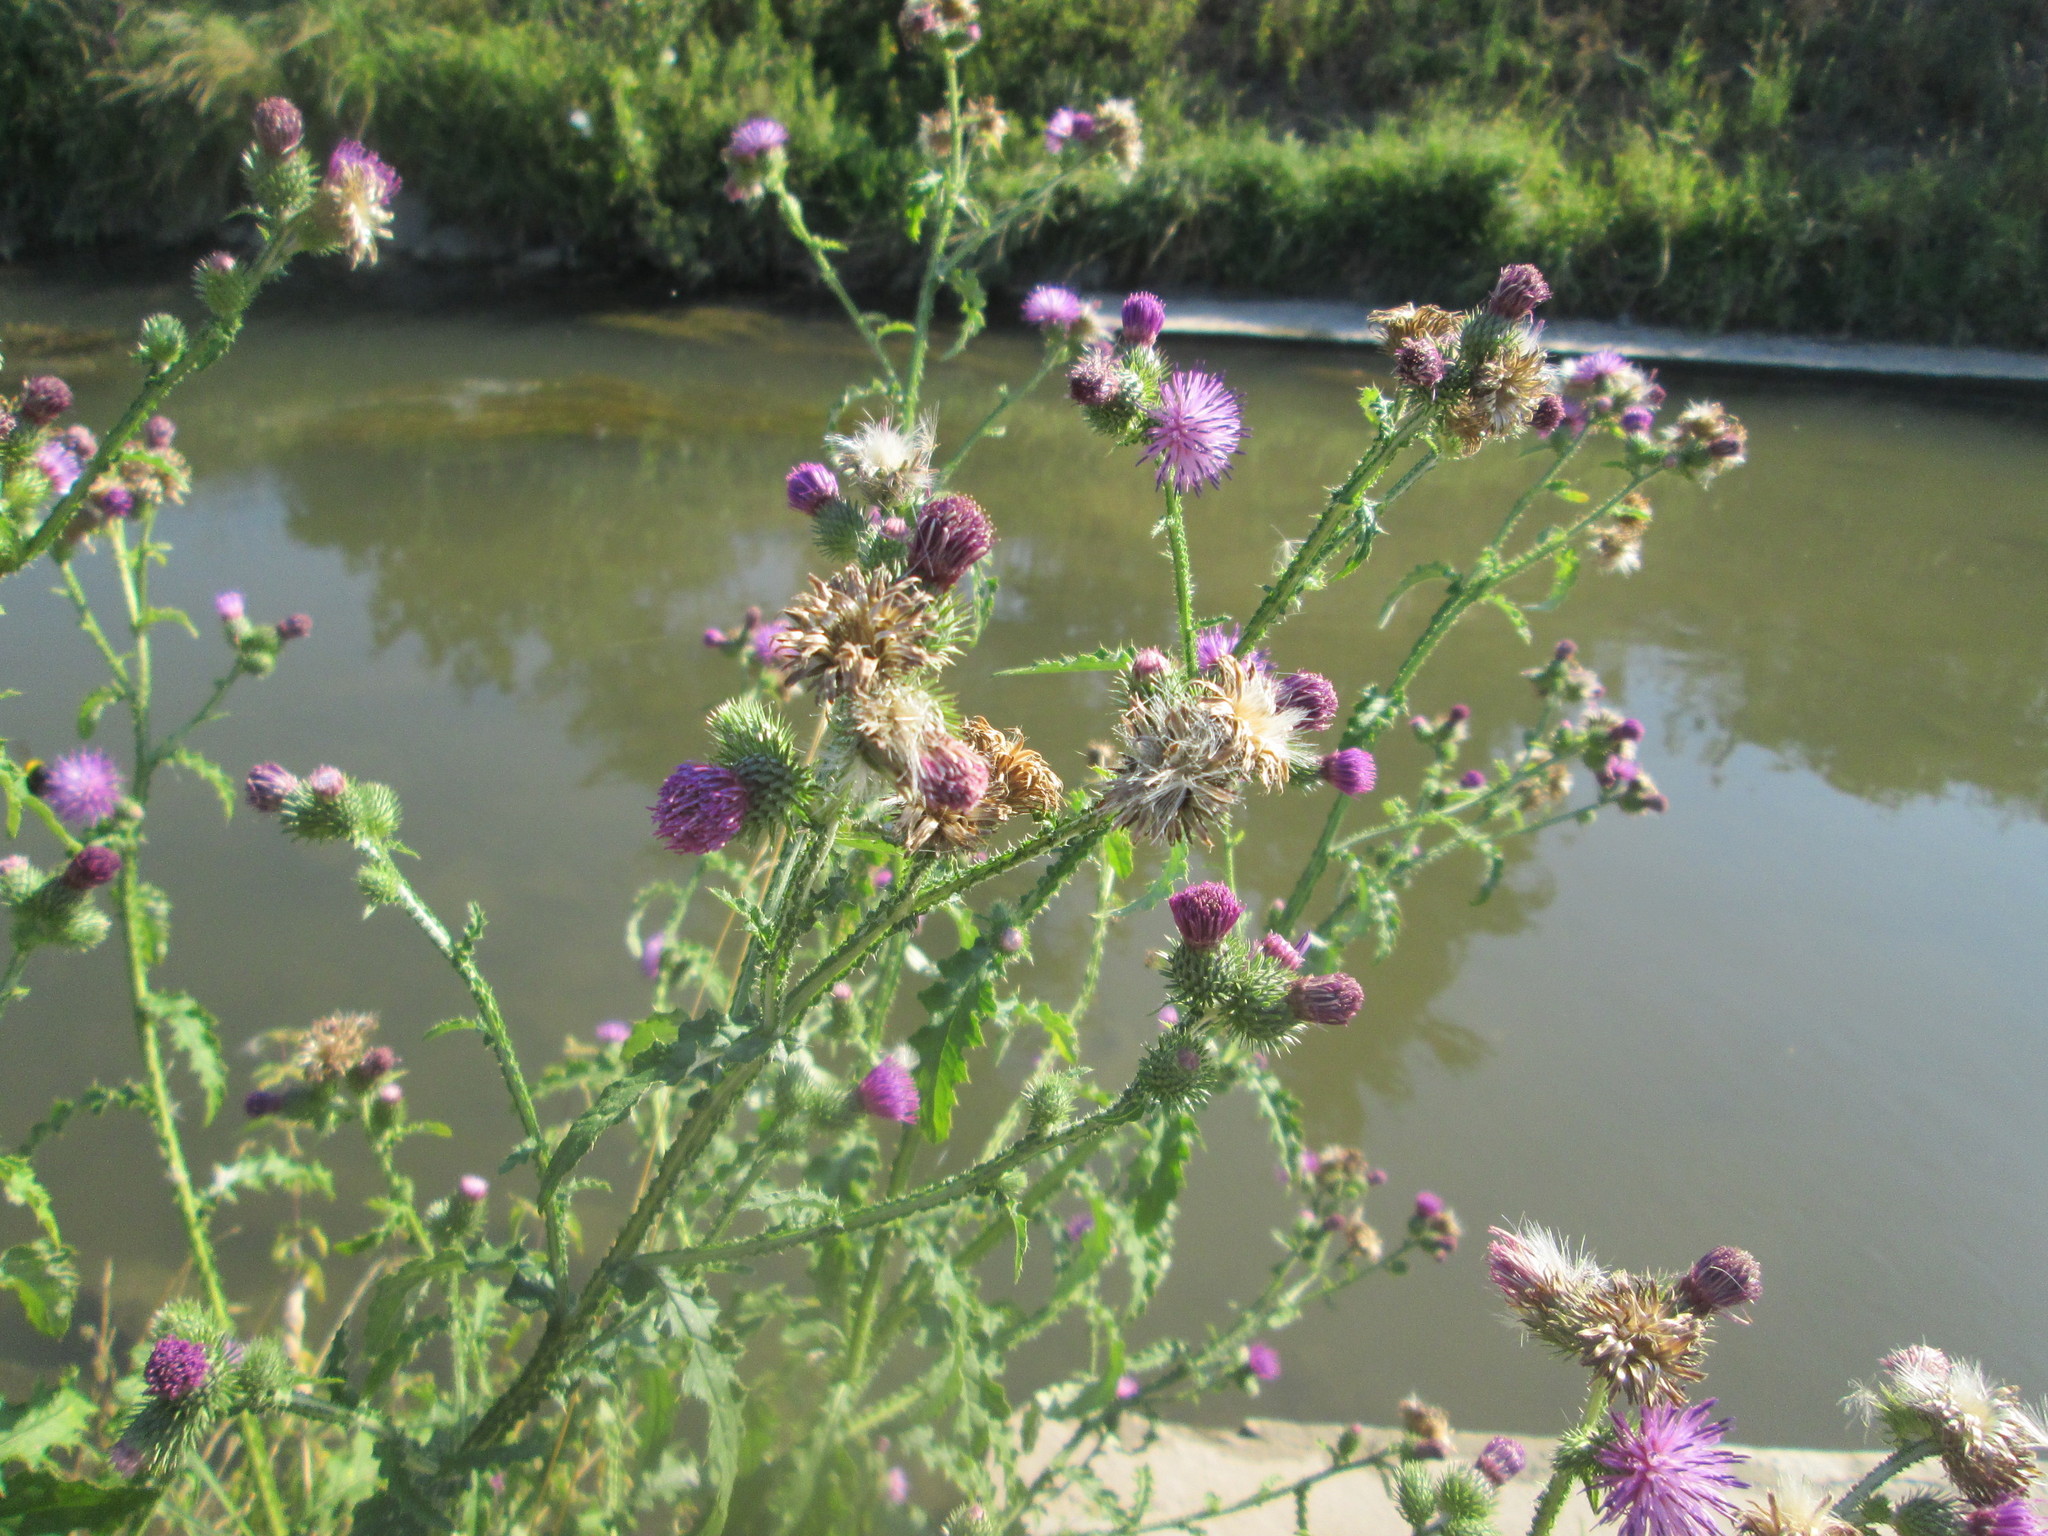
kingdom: Plantae
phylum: Tracheophyta
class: Magnoliopsida
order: Asterales
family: Asteraceae
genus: Carduus
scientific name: Carduus acanthoides
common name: Plumeless thistle
